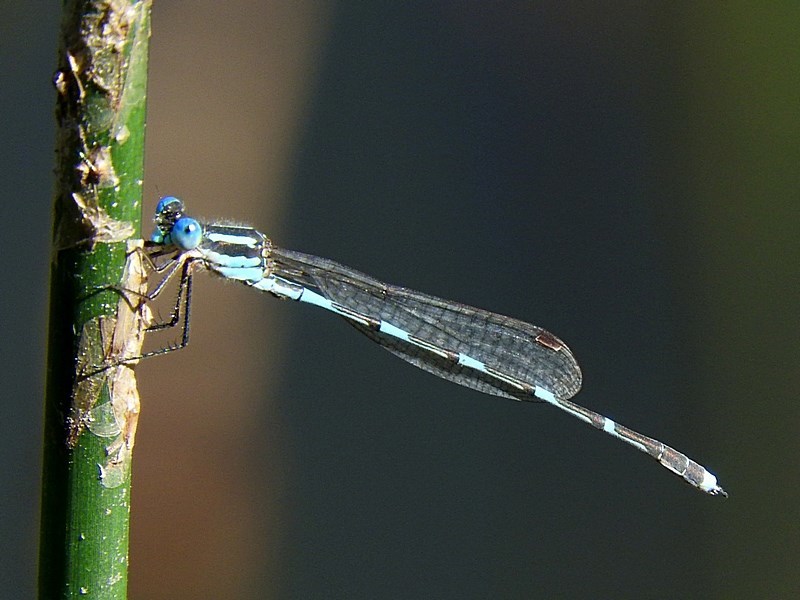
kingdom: Animalia
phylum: Arthropoda
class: Insecta
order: Odonata
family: Lestidae
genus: Austrolestes
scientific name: Austrolestes leda
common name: Wandering ringtail
